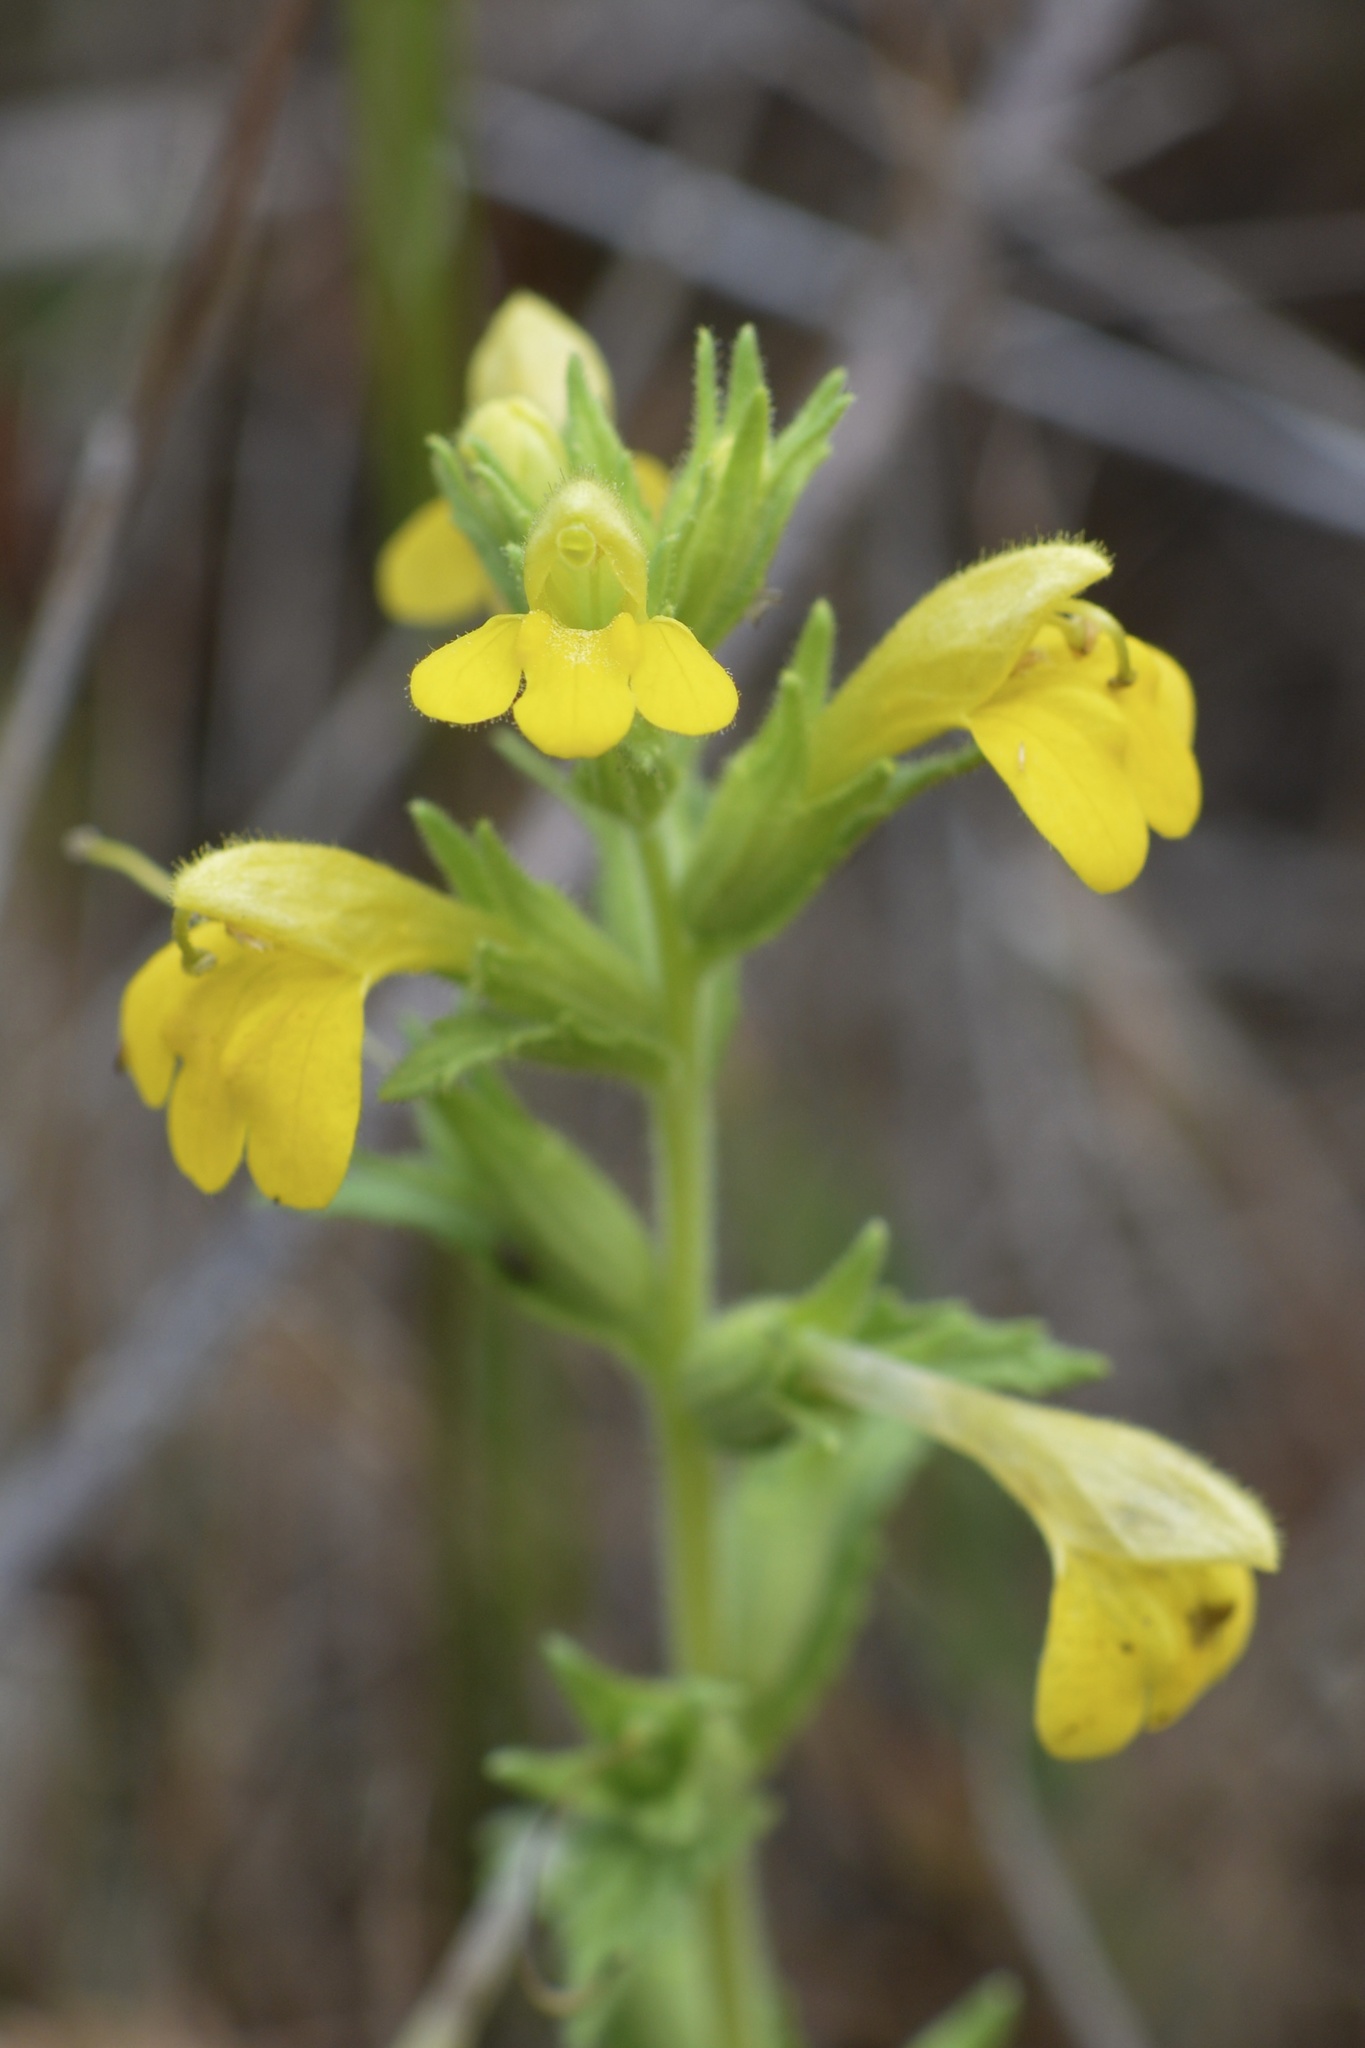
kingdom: Plantae
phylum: Tracheophyta
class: Magnoliopsida
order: Lamiales
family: Orobanchaceae
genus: Bellardia
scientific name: Bellardia viscosa
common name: Sticky parentucellia
